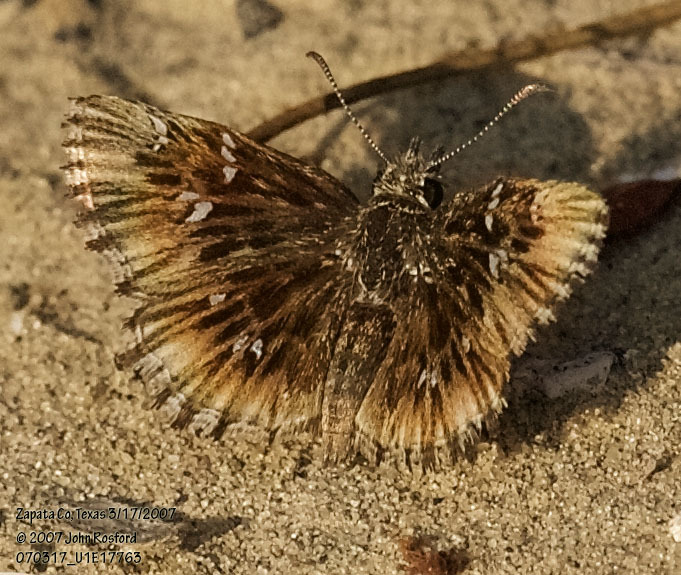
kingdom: Animalia
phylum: Arthropoda
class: Insecta
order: Lepidoptera
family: Hesperiidae
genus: Celotes
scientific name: Celotes nessus
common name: Common streaky-skipper
